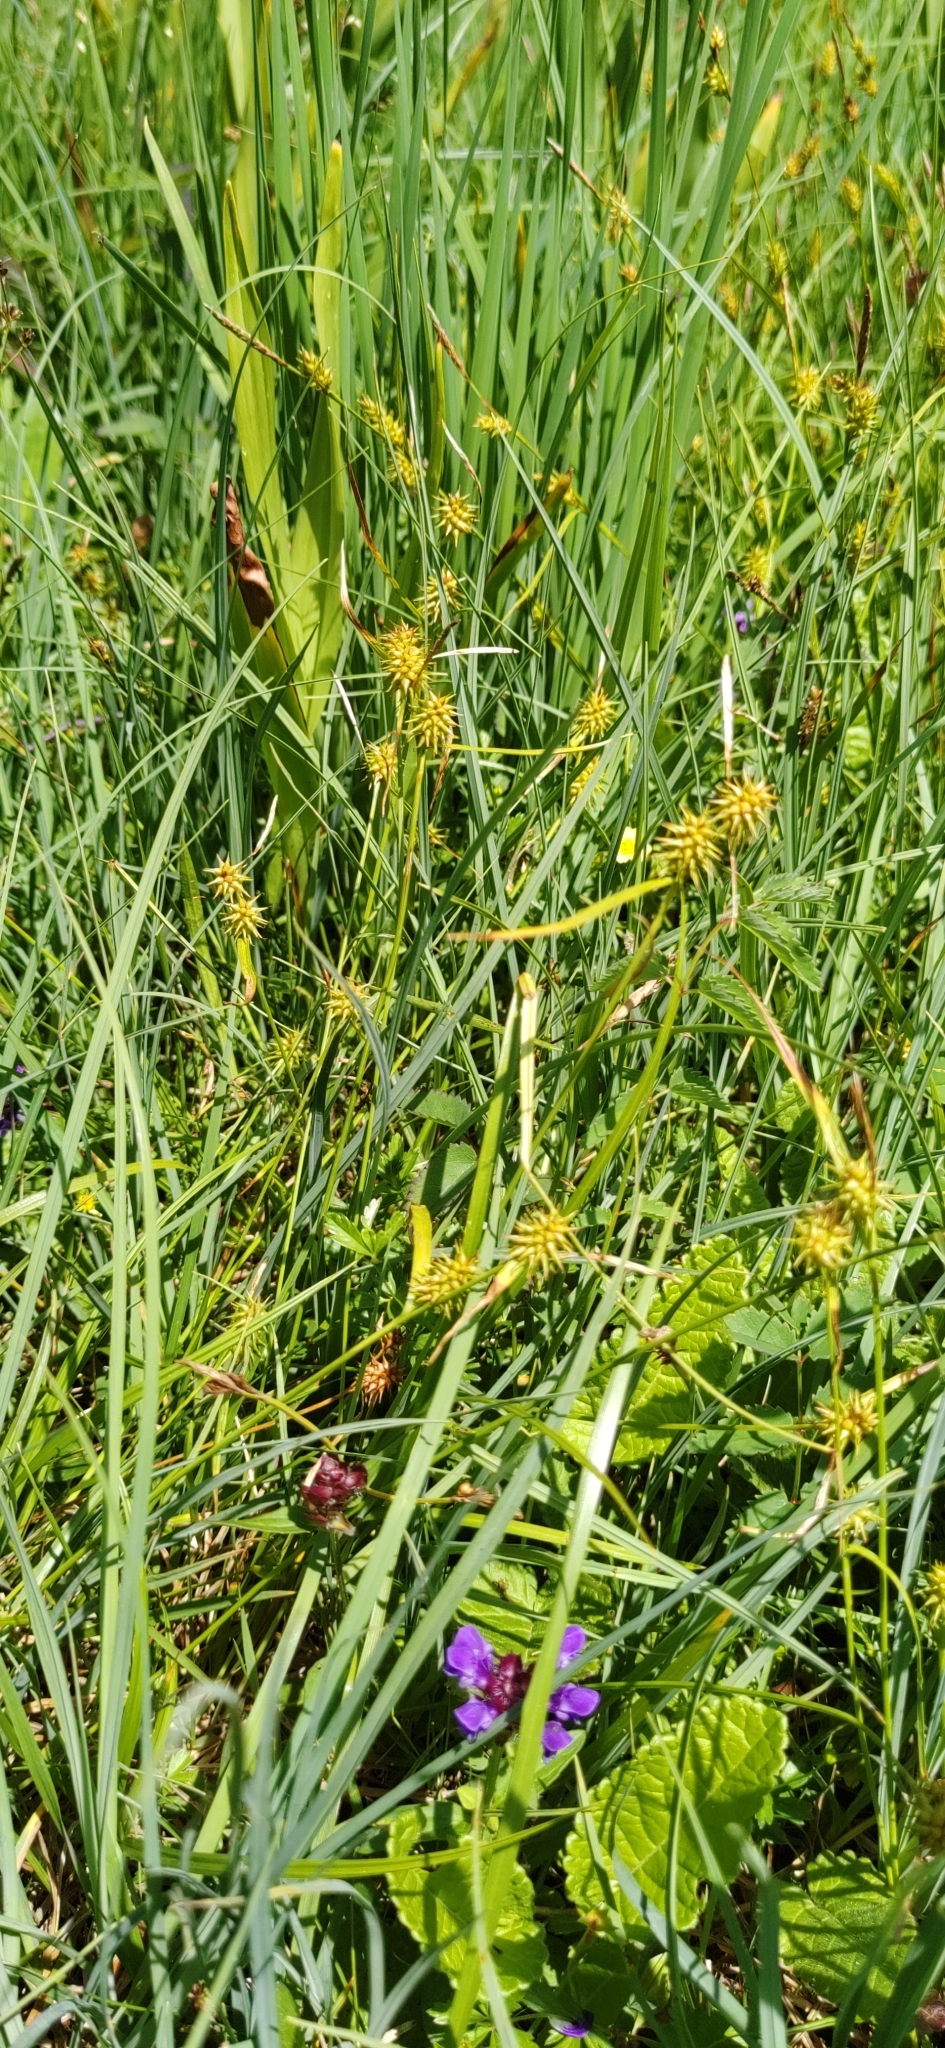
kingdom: Plantae
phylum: Tracheophyta
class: Liliopsida
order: Poales
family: Cyperaceae
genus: Carex
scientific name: Carex flava
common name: Large yellow-sedge
